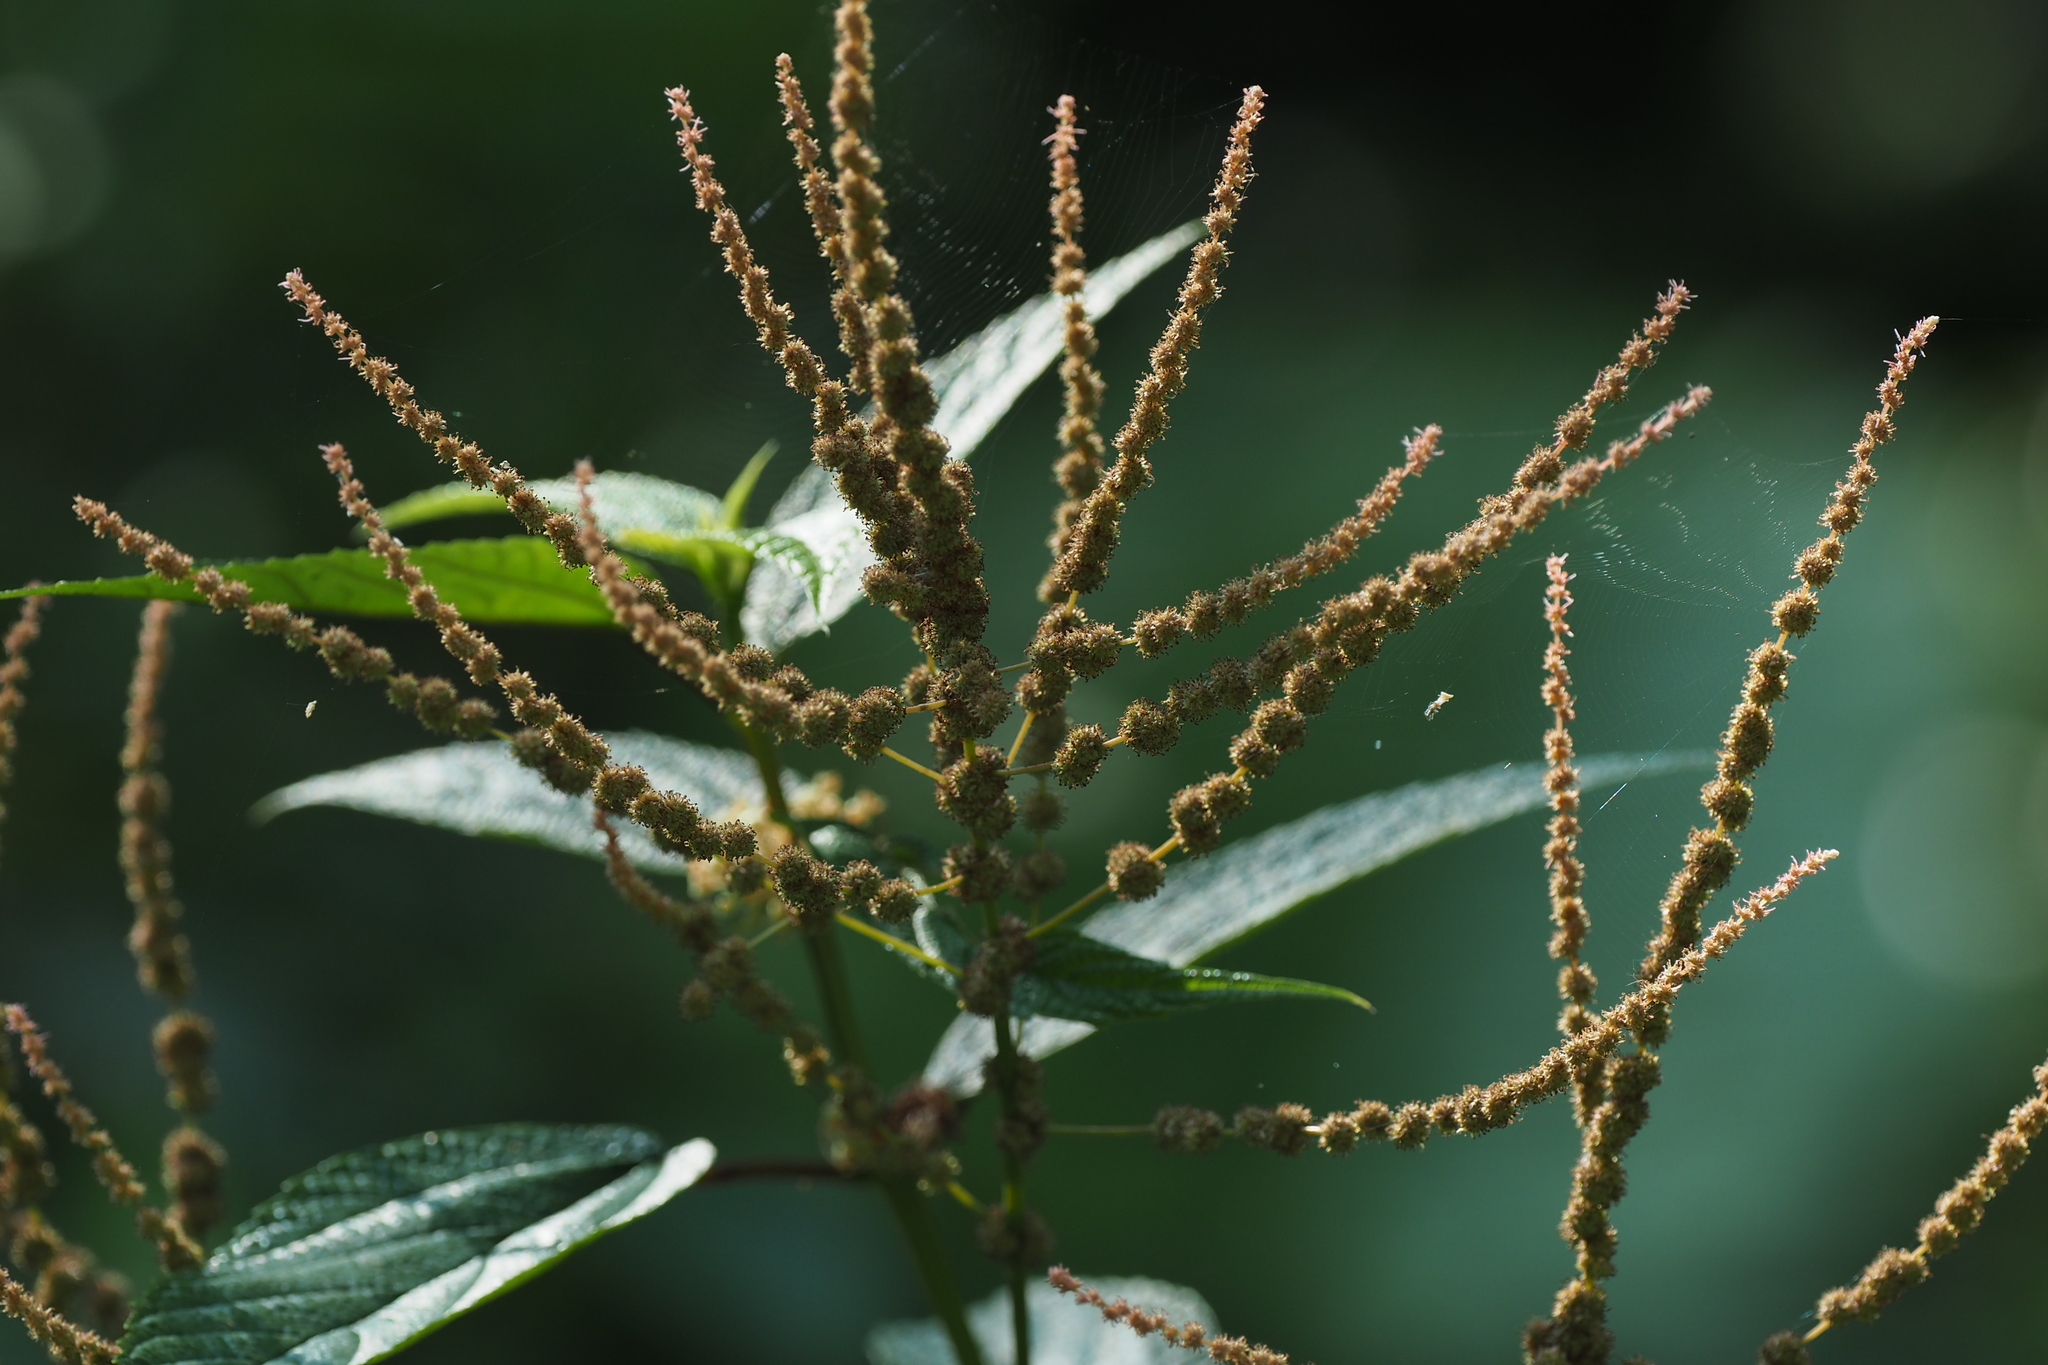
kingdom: Plantae
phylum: Tracheophyta
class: Magnoliopsida
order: Rosales
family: Urticaceae
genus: Boehmeria
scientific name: Boehmeria zollingeriana
